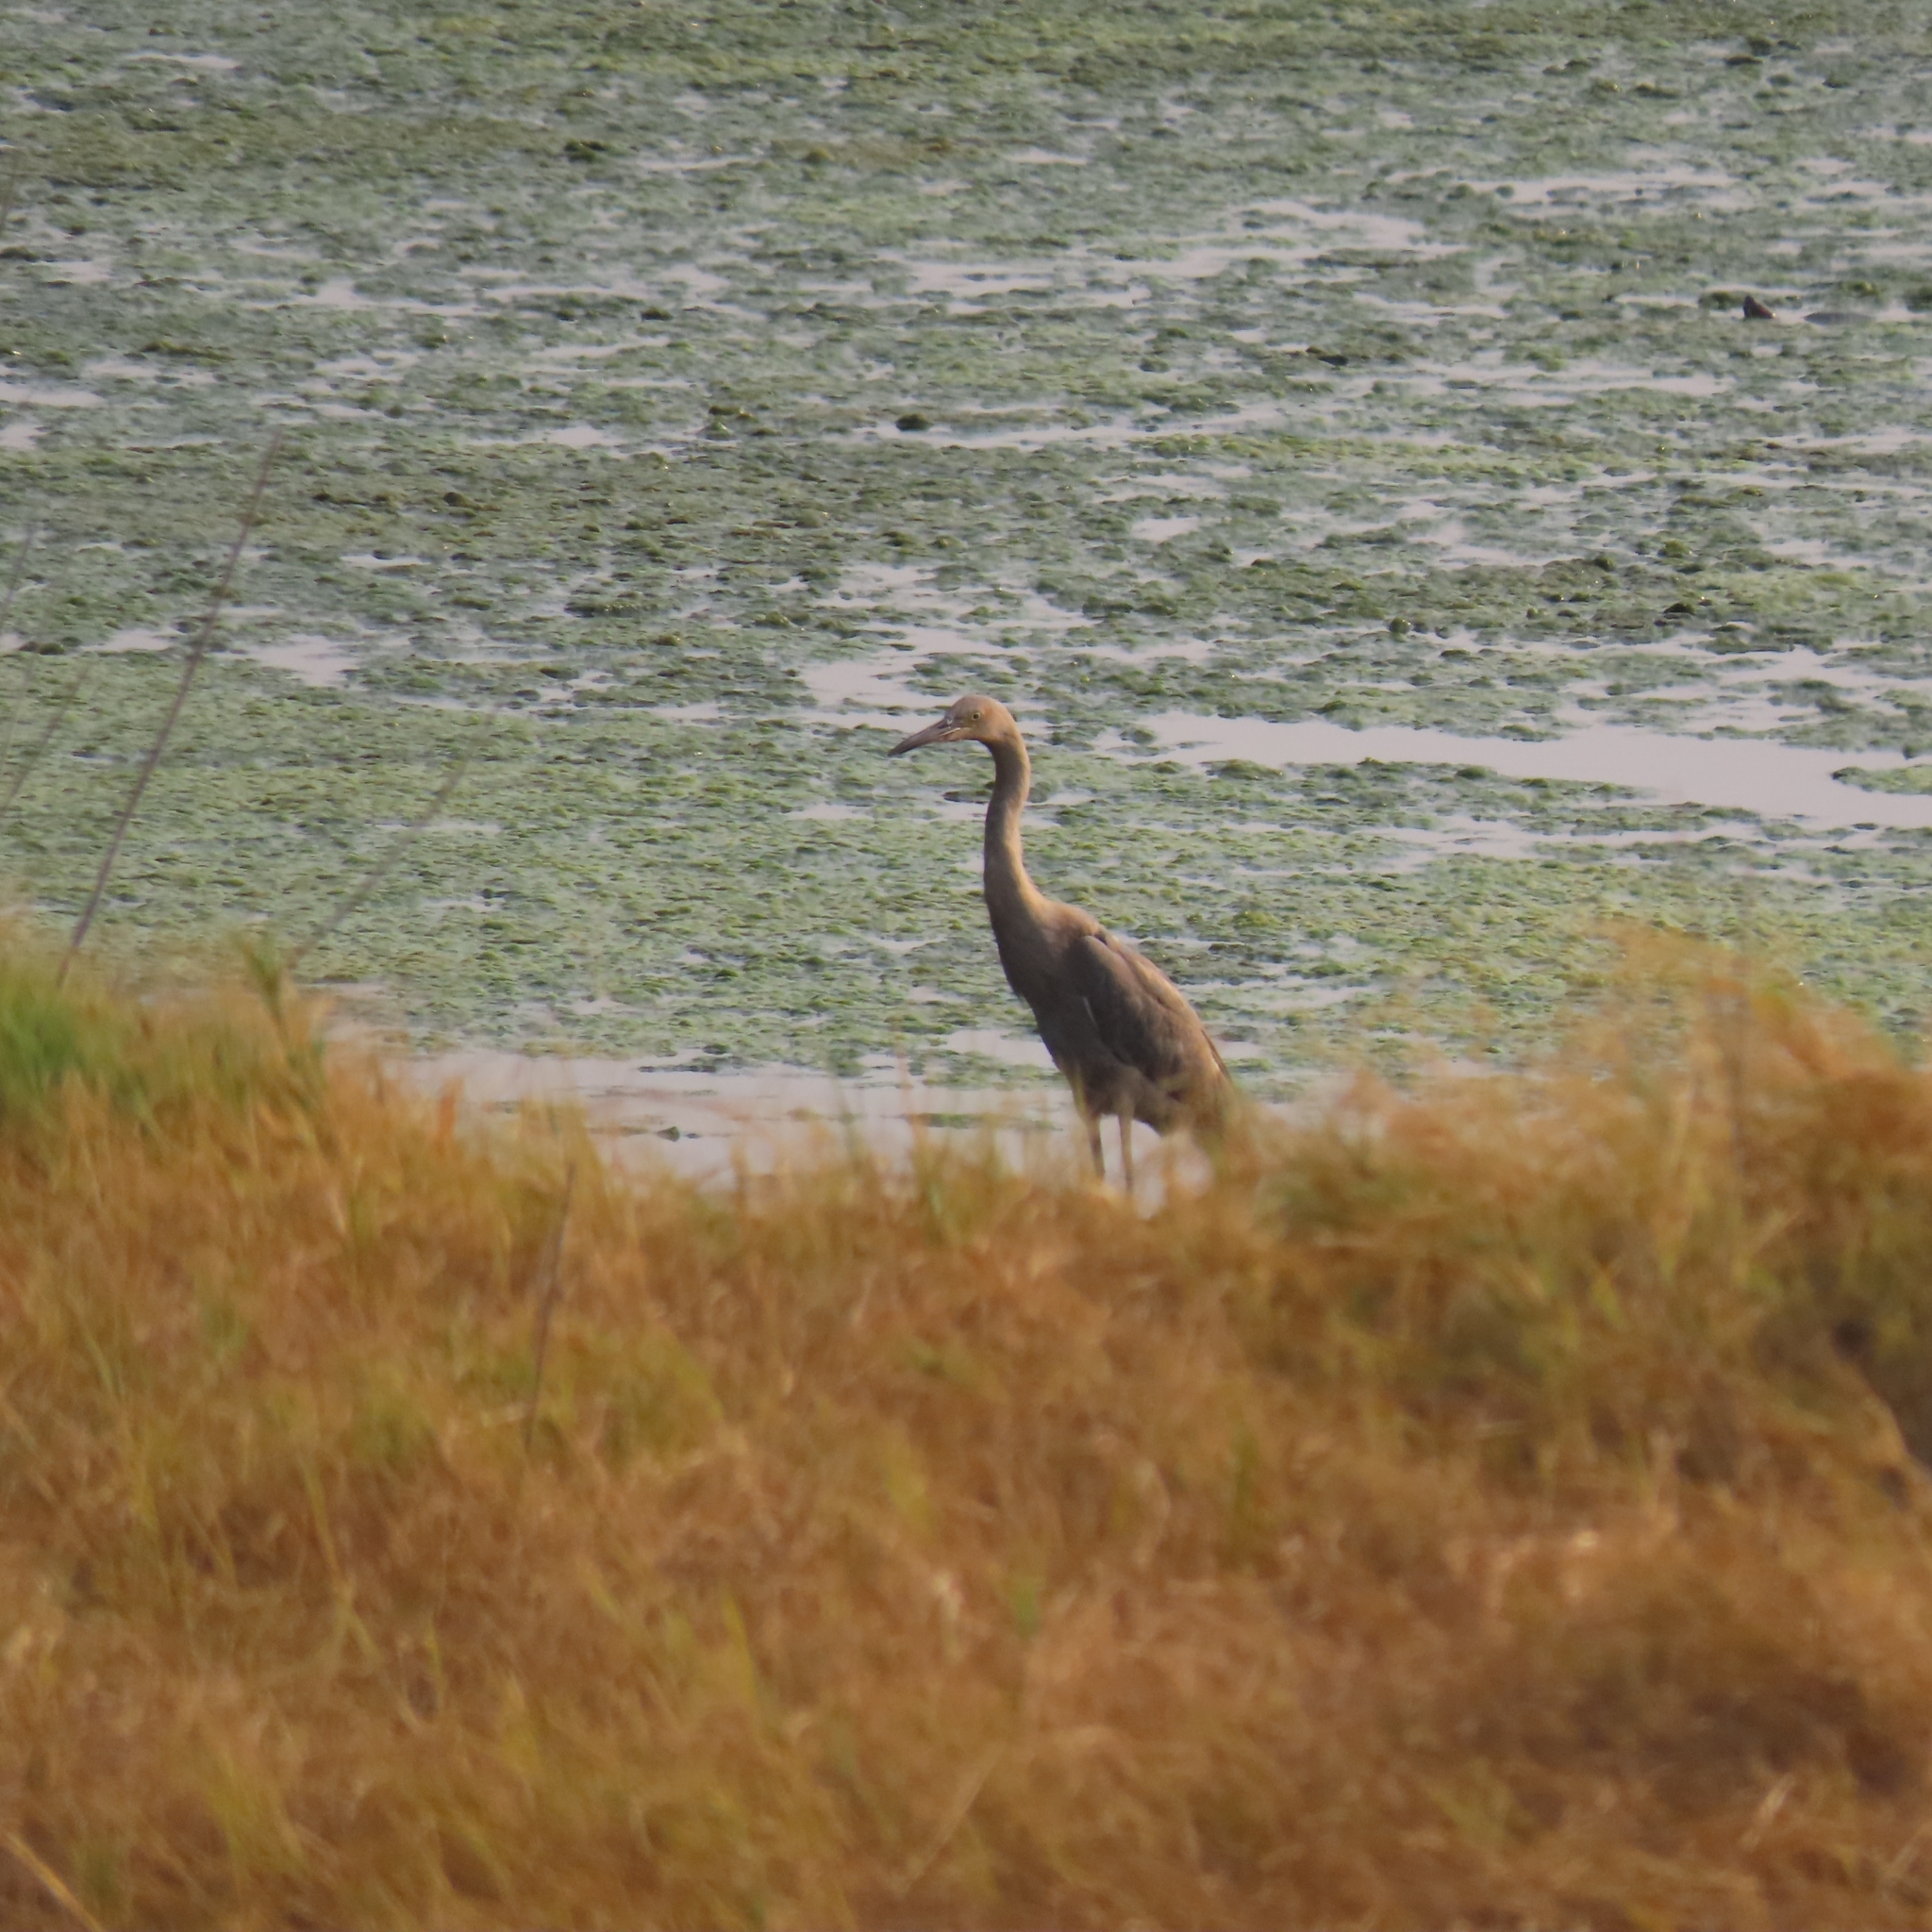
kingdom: Animalia
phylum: Chordata
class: Aves
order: Pelecaniformes
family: Ardeidae
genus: Egretta
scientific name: Egretta rufescens
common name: Reddish egret
